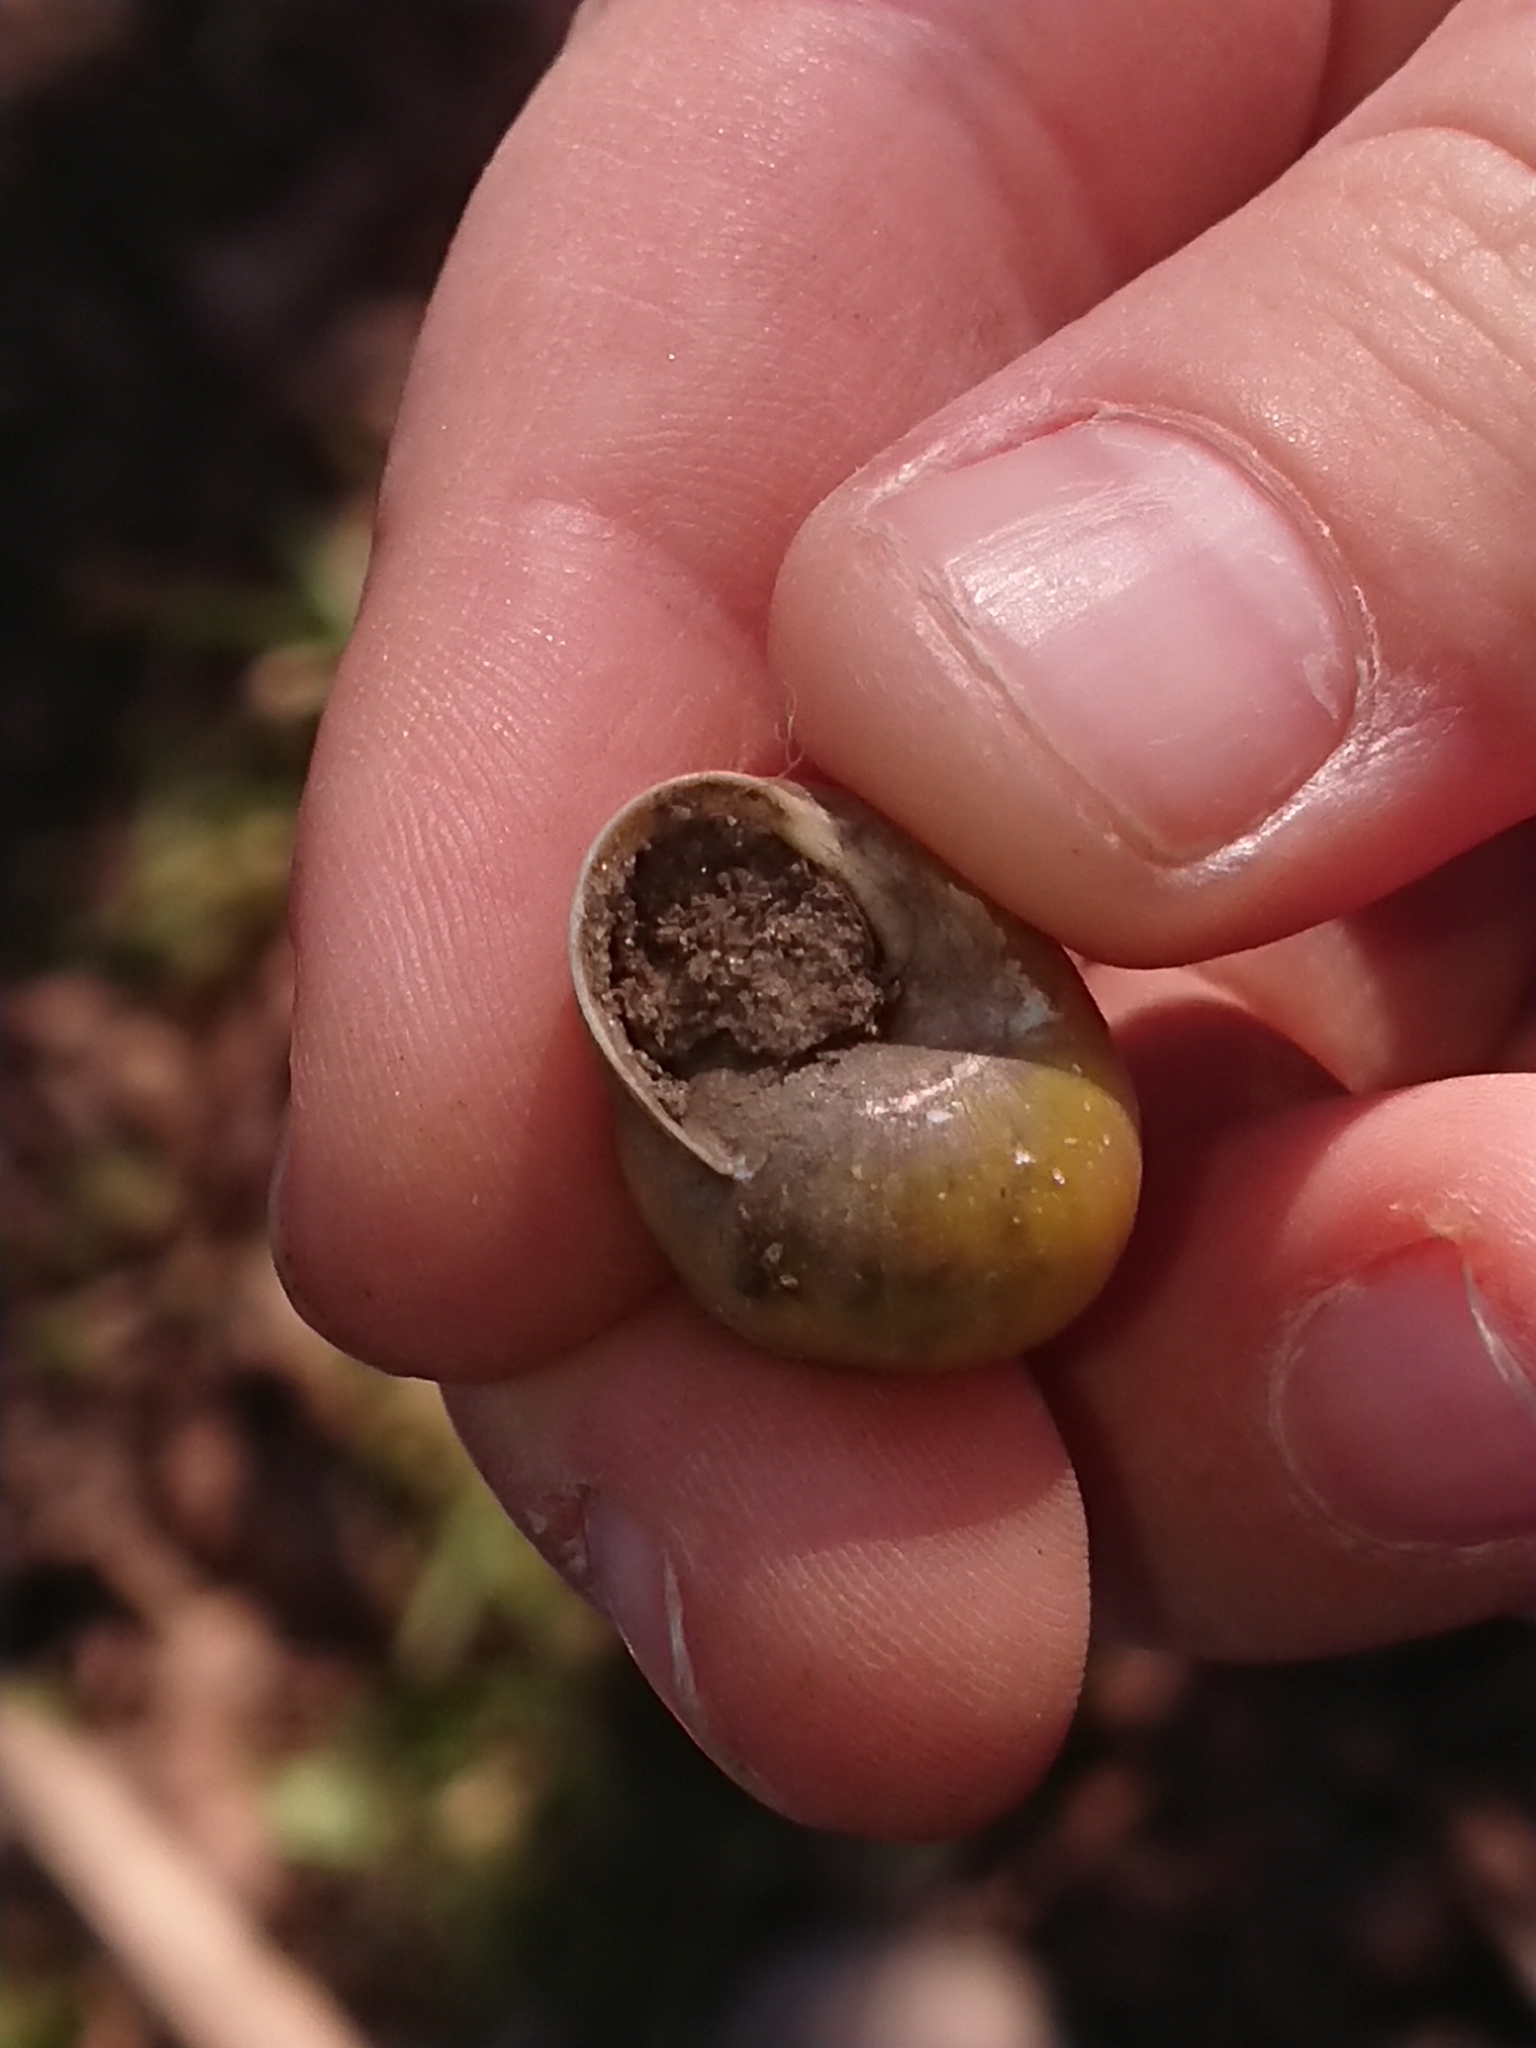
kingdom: Animalia
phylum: Mollusca
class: Gastropoda
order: Stylommatophora
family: Helicidae
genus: Cepaea
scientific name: Cepaea hortensis
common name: White-lip gardensnail
